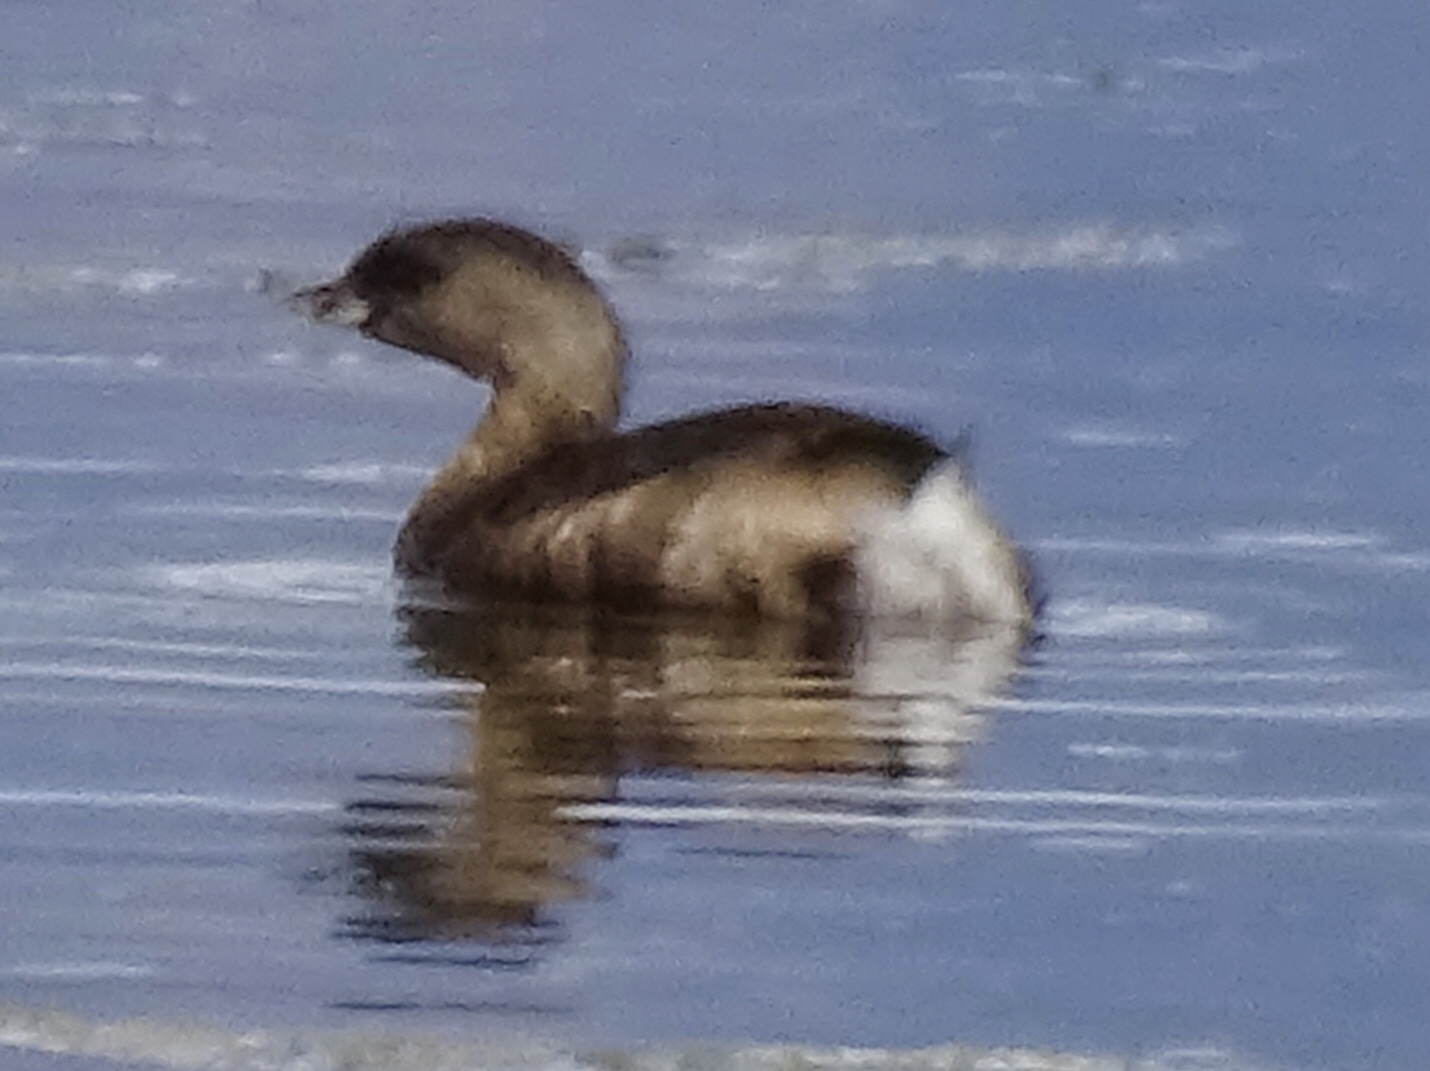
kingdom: Animalia
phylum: Chordata
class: Aves
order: Podicipediformes
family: Podicipedidae
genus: Podilymbus
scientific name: Podilymbus podiceps
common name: Pied-billed grebe
